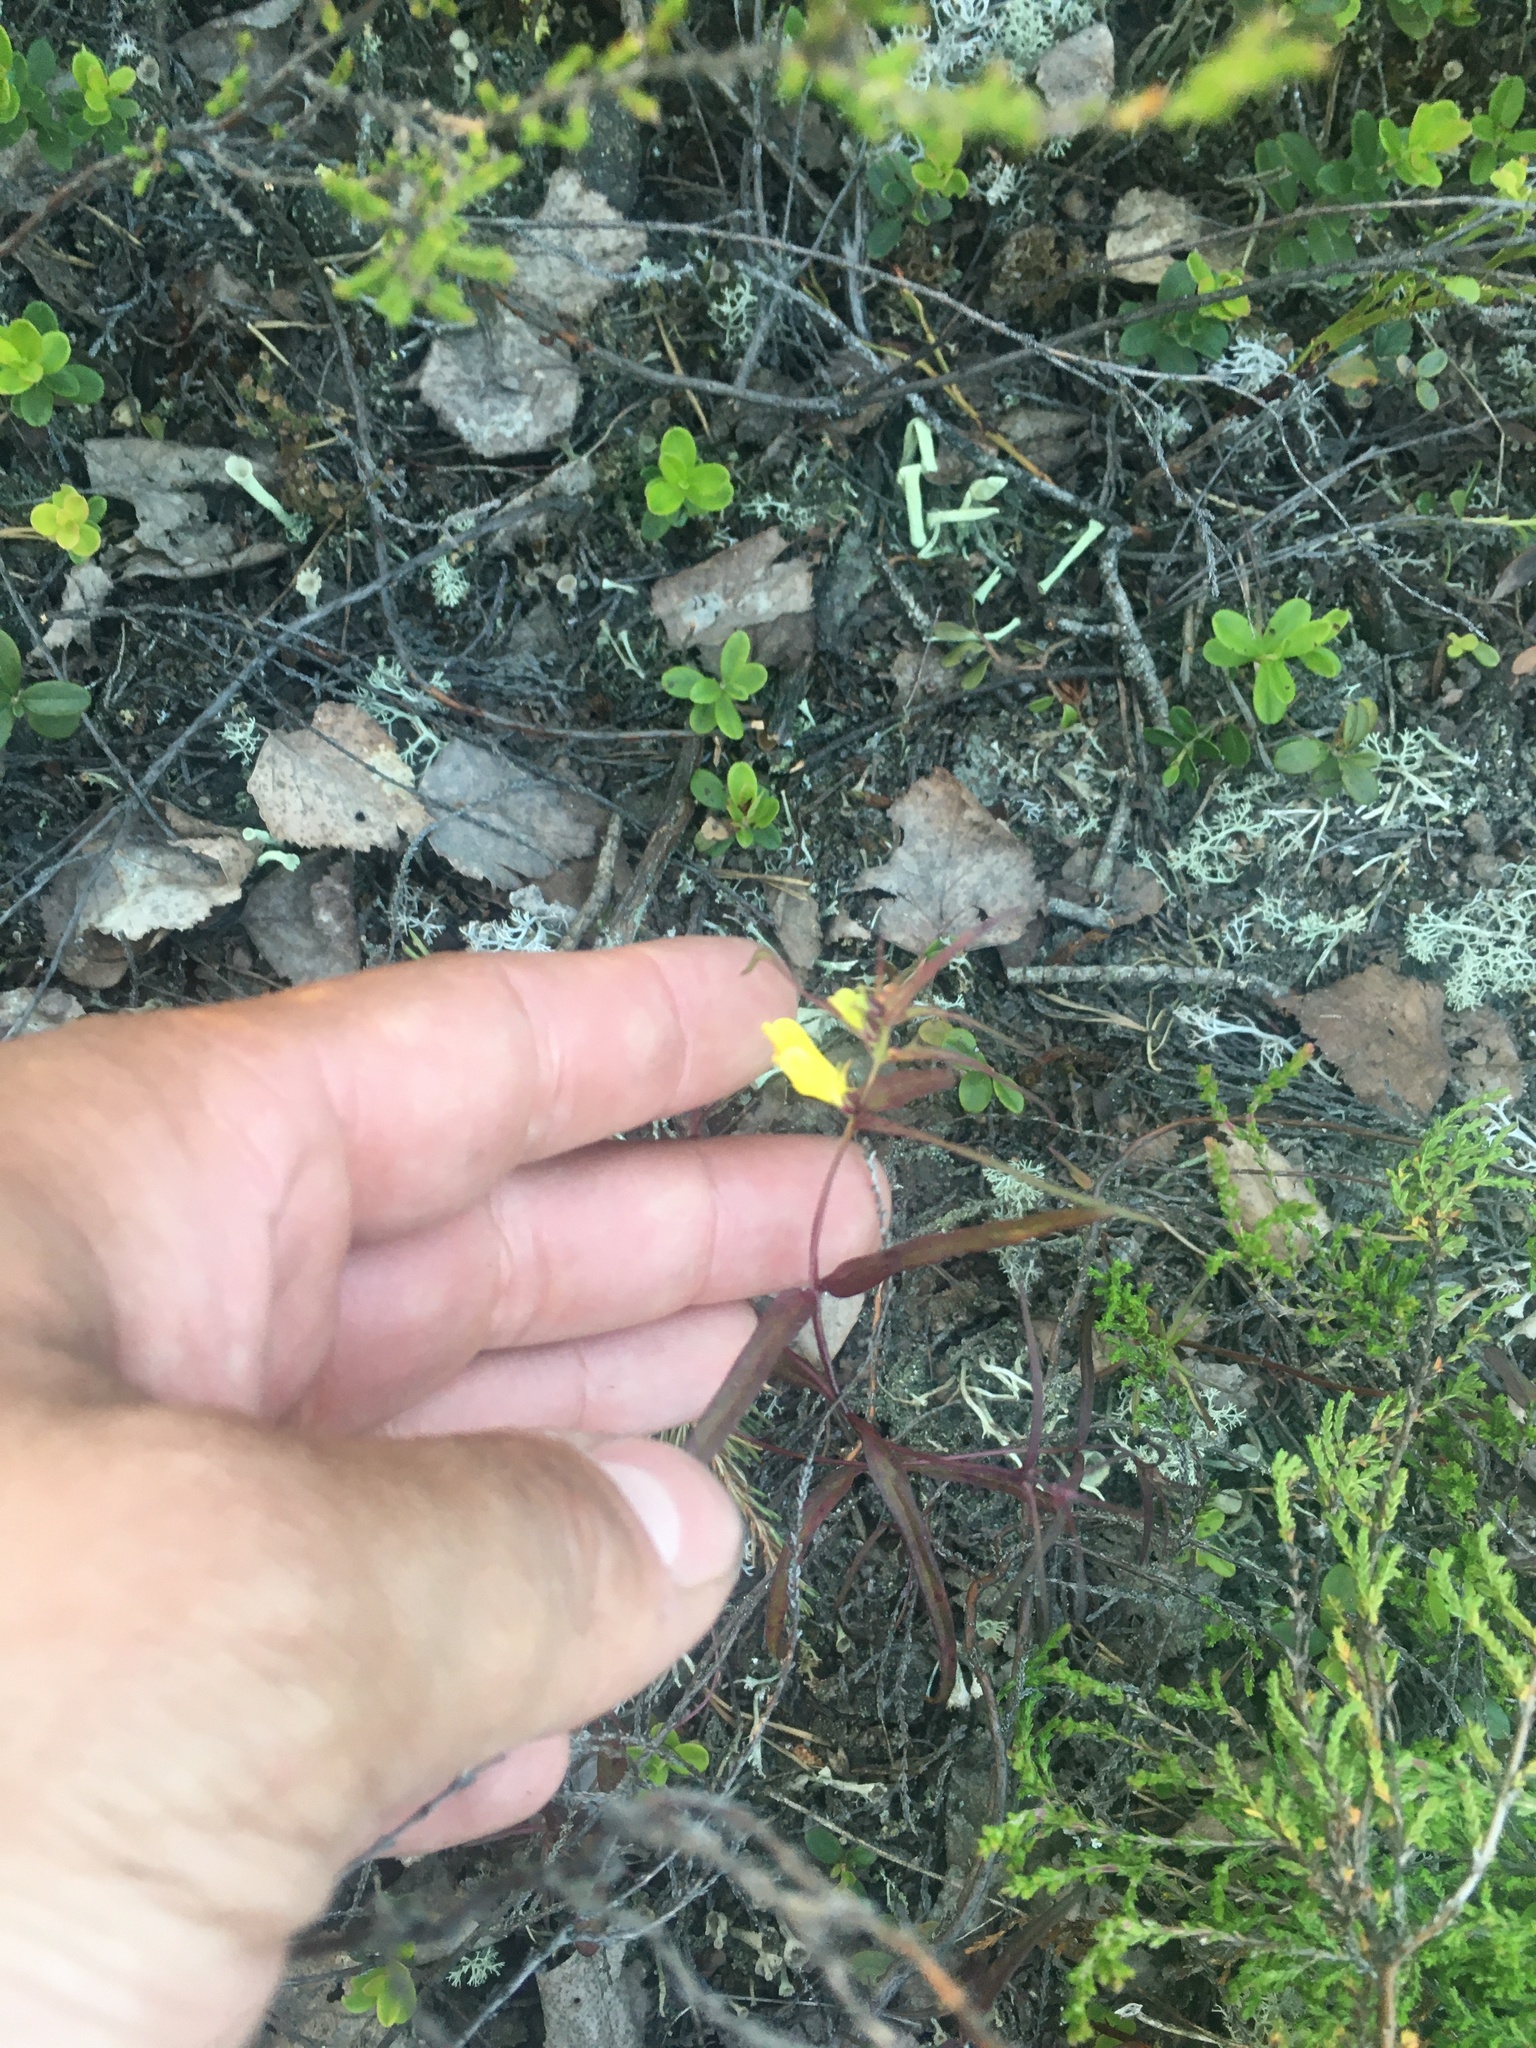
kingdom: Plantae
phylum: Tracheophyta
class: Magnoliopsida
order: Lamiales
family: Orobanchaceae
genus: Melampyrum
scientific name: Melampyrum pratense
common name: Common cow-wheat
